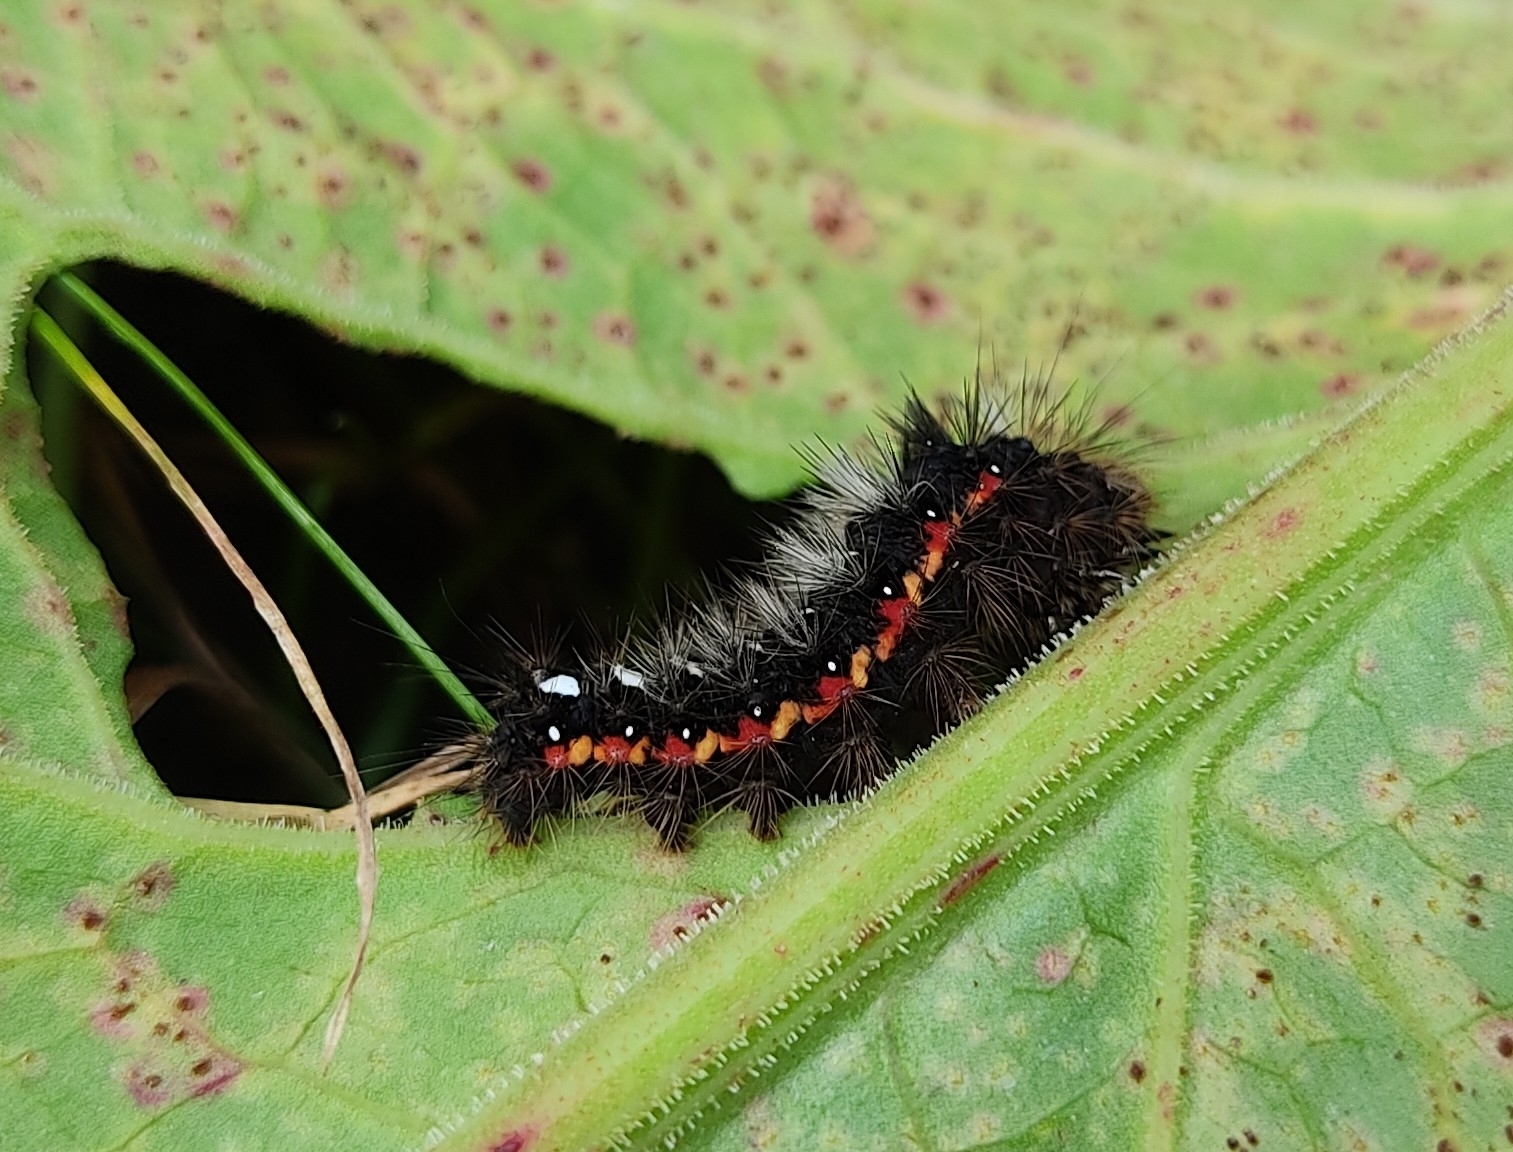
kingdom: Animalia
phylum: Arthropoda
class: Insecta
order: Lepidoptera
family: Noctuidae
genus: Acronicta
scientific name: Acronicta rumicis
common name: Knot grass
